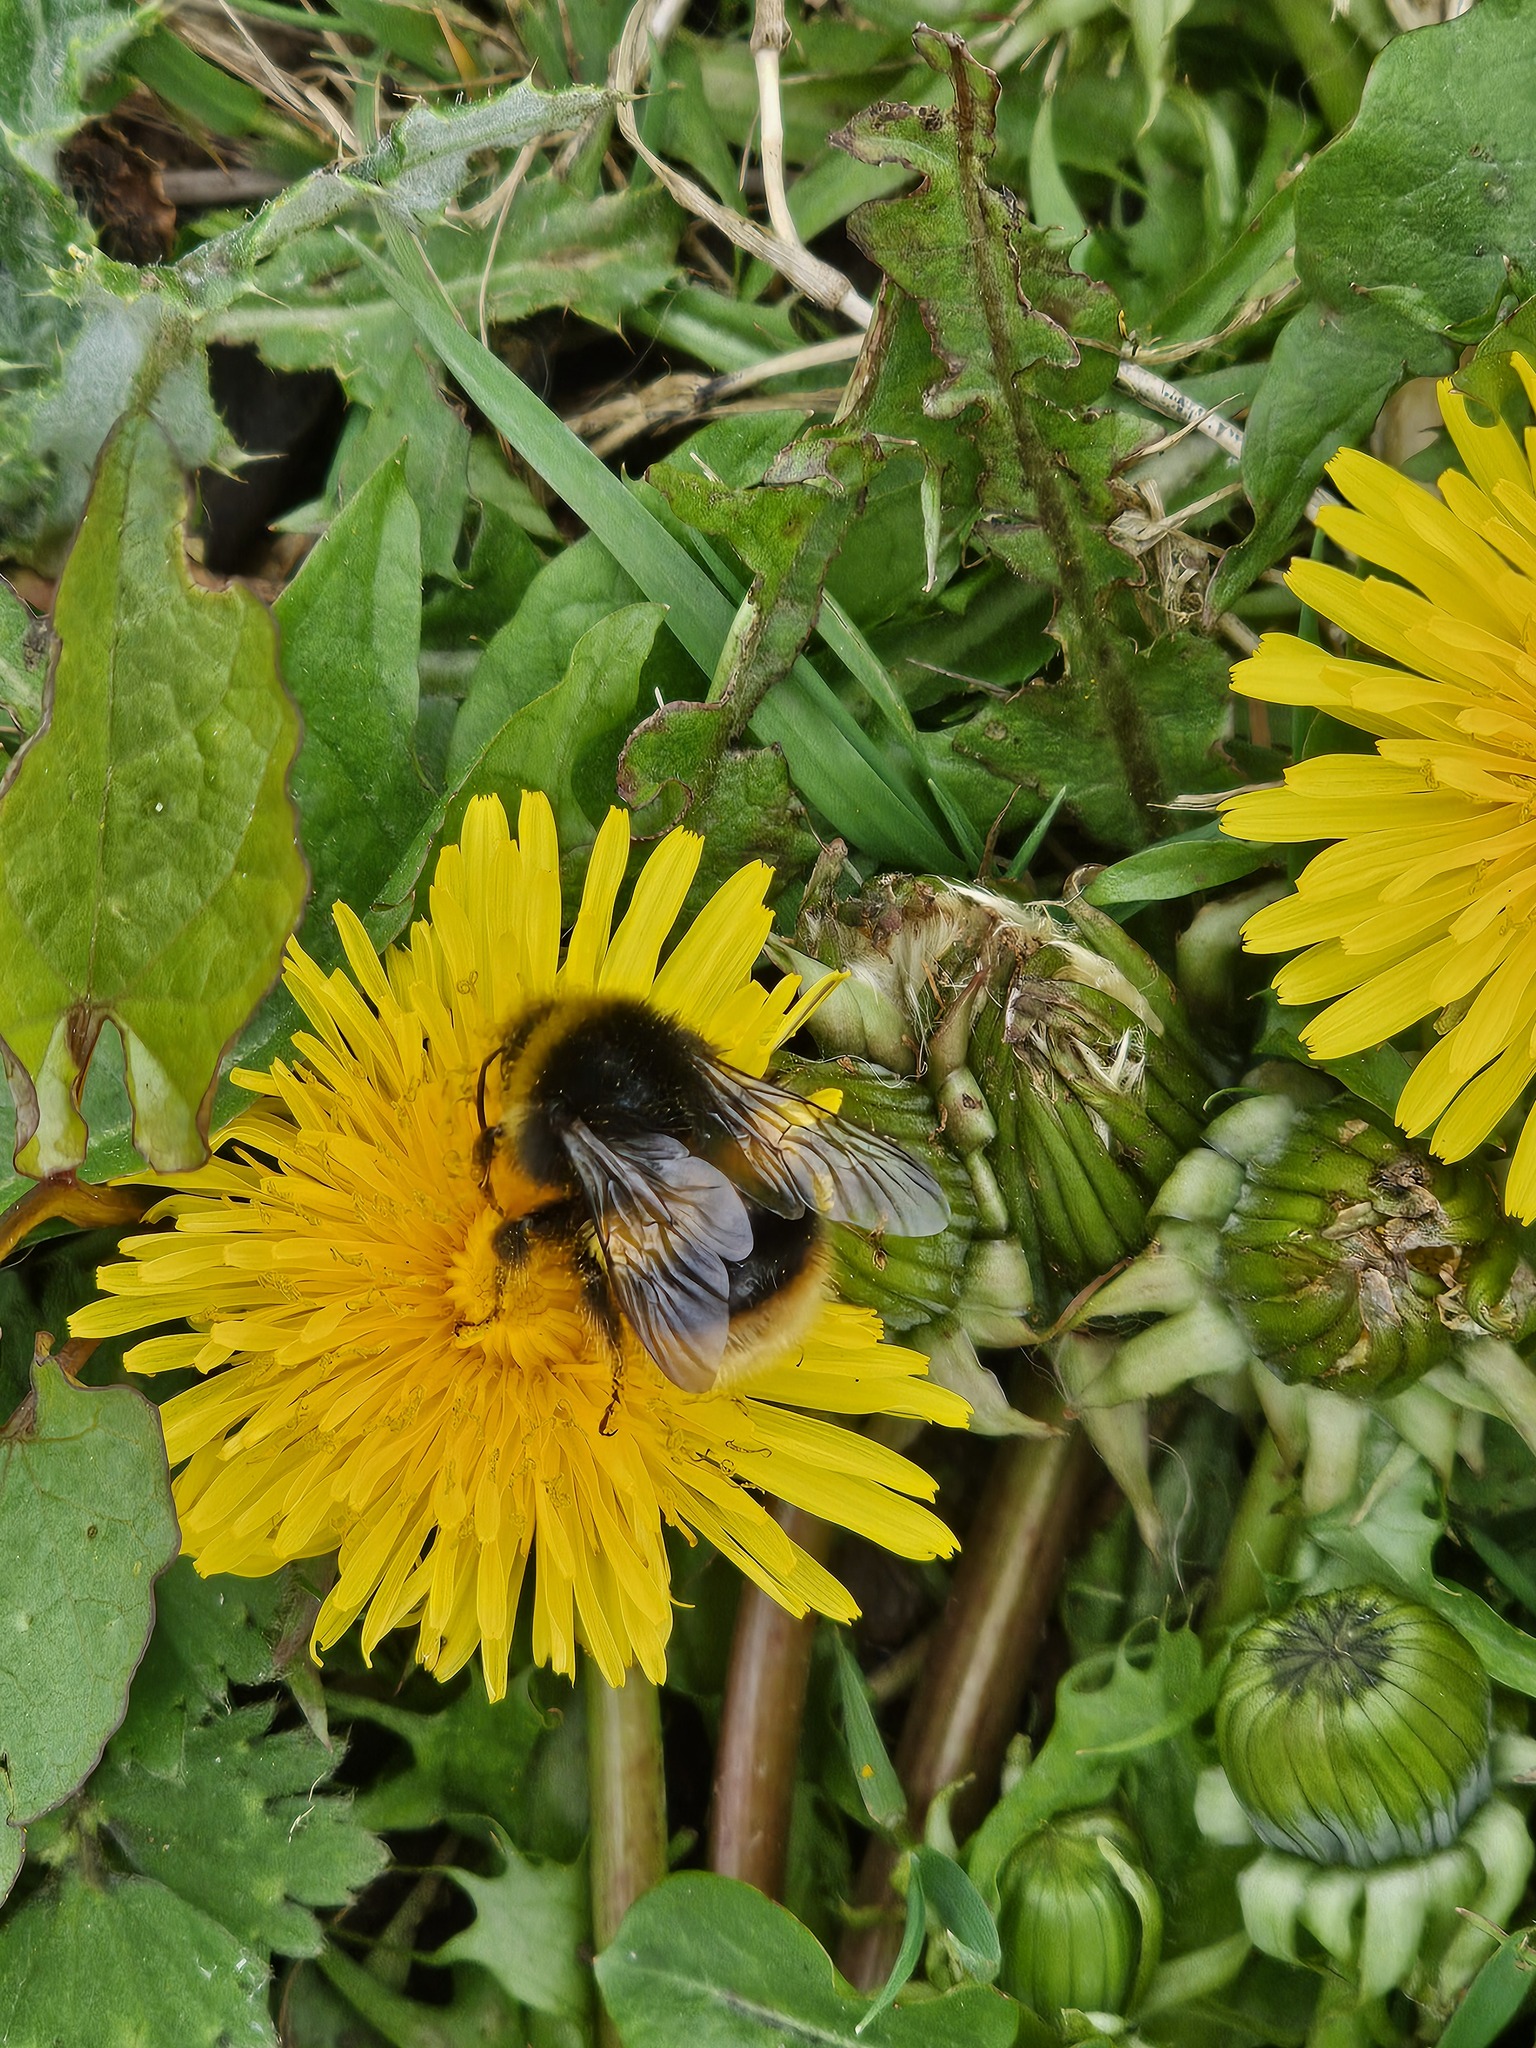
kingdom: Animalia
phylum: Arthropoda
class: Insecta
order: Hymenoptera
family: Apidae
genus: Bombus
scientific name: Bombus terrestris
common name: Buff-tailed bumblebee
